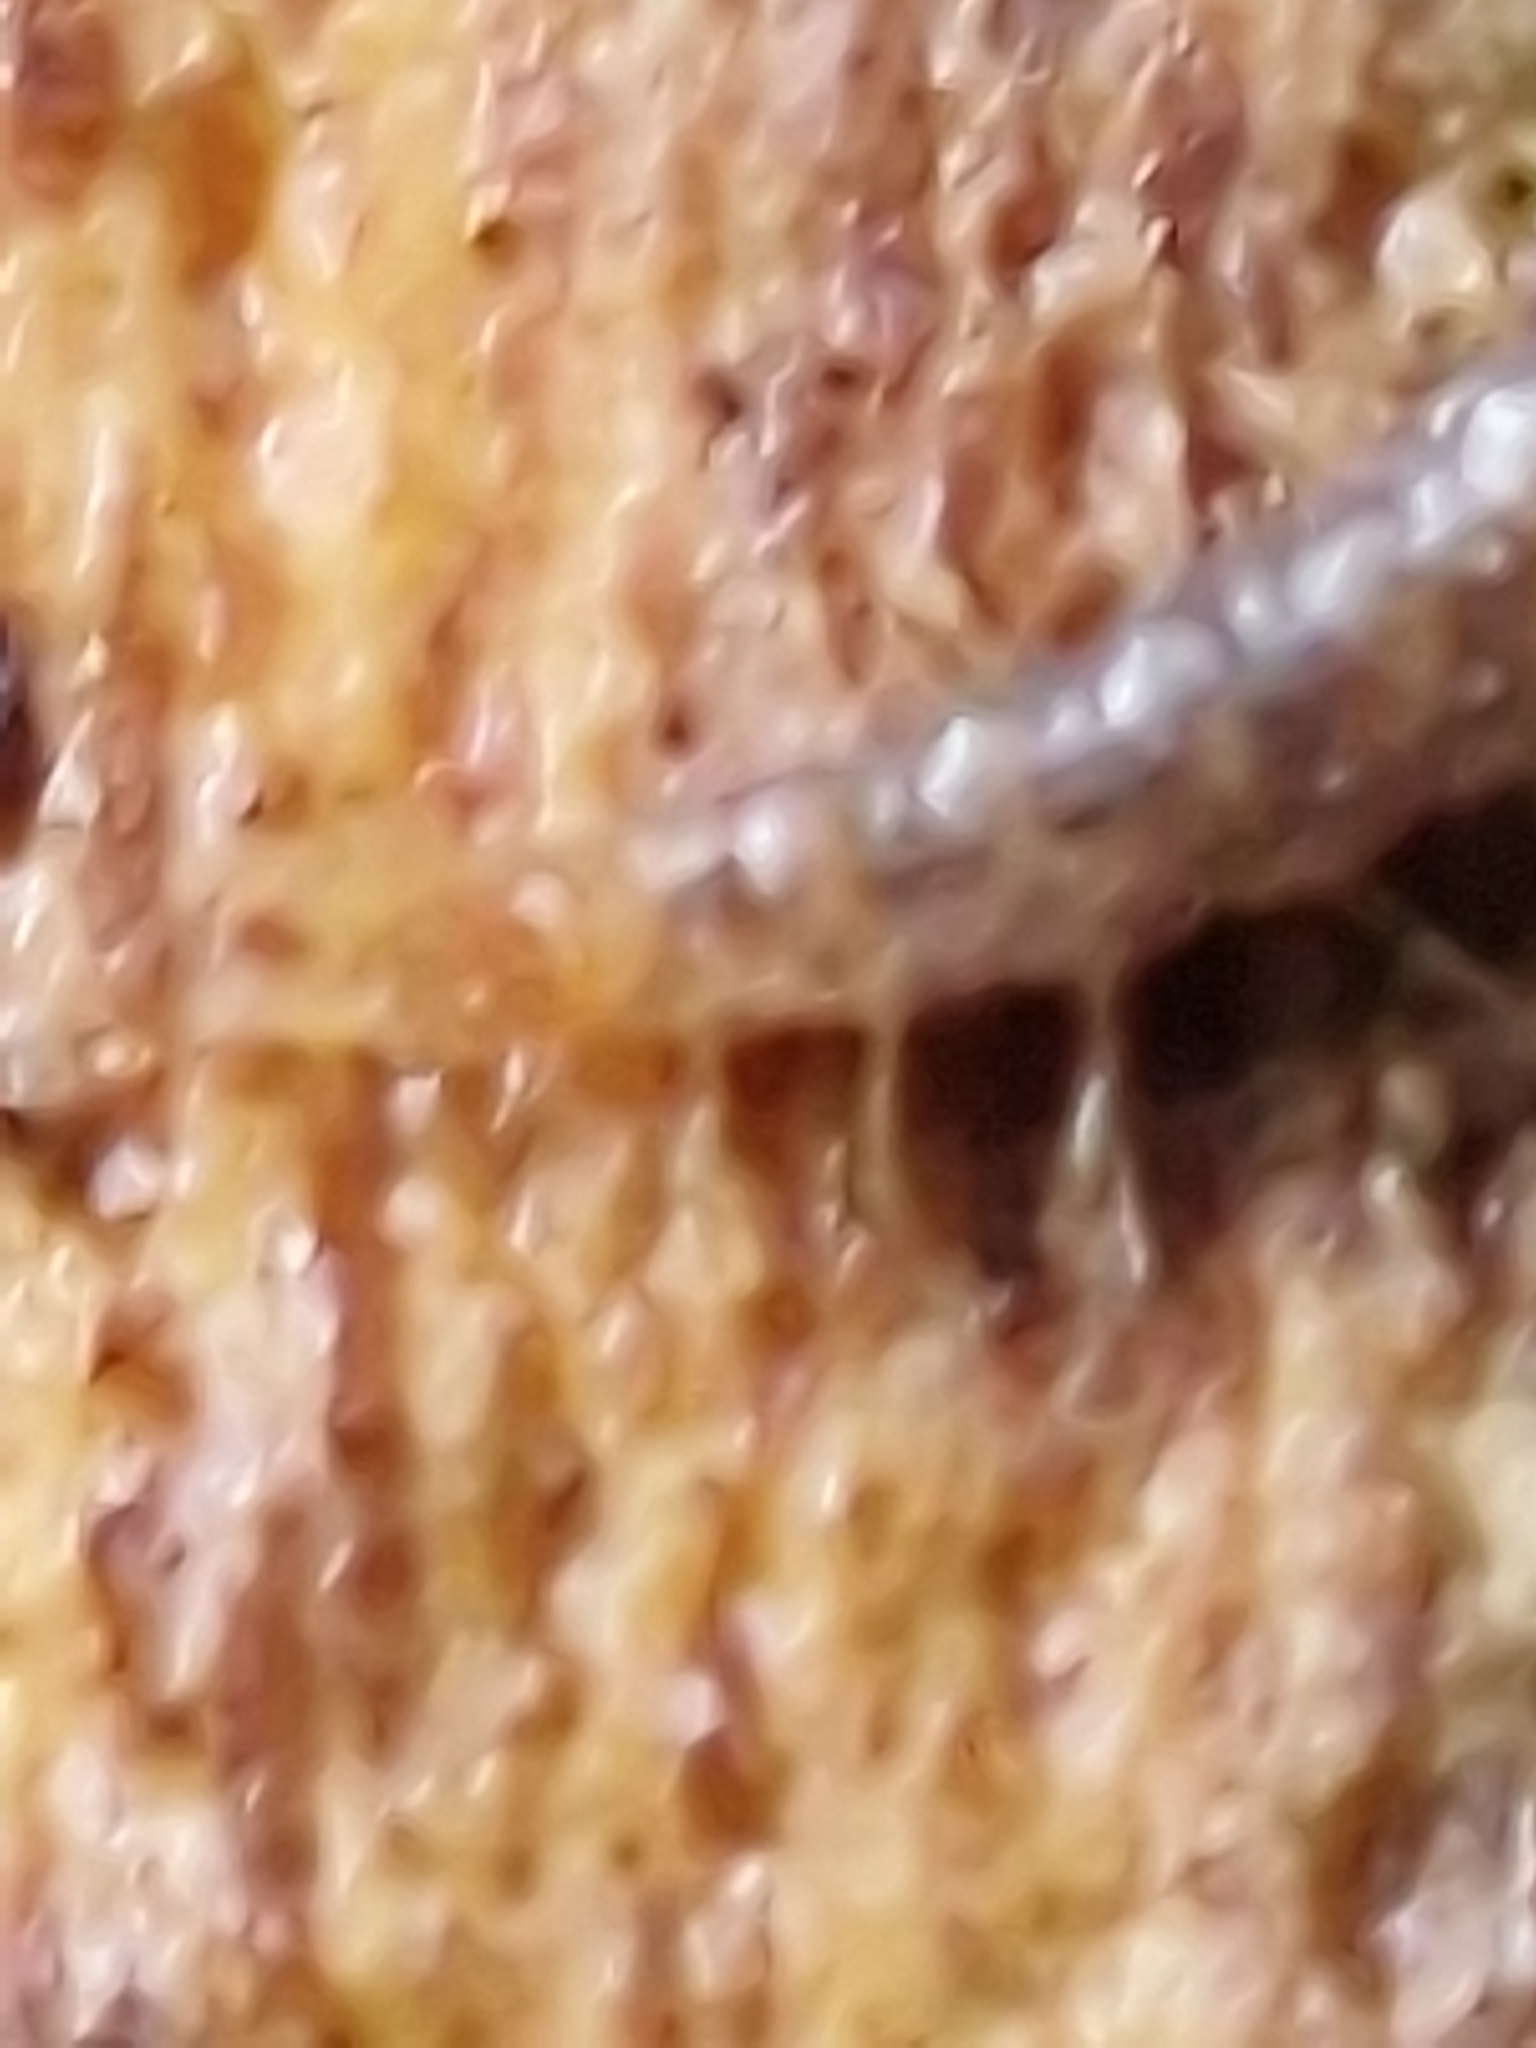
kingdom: Animalia
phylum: Arthropoda
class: Chilopoda
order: Geophilomorpha
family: Geophilidae
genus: Geophilus
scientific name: Geophilus carpophagus
